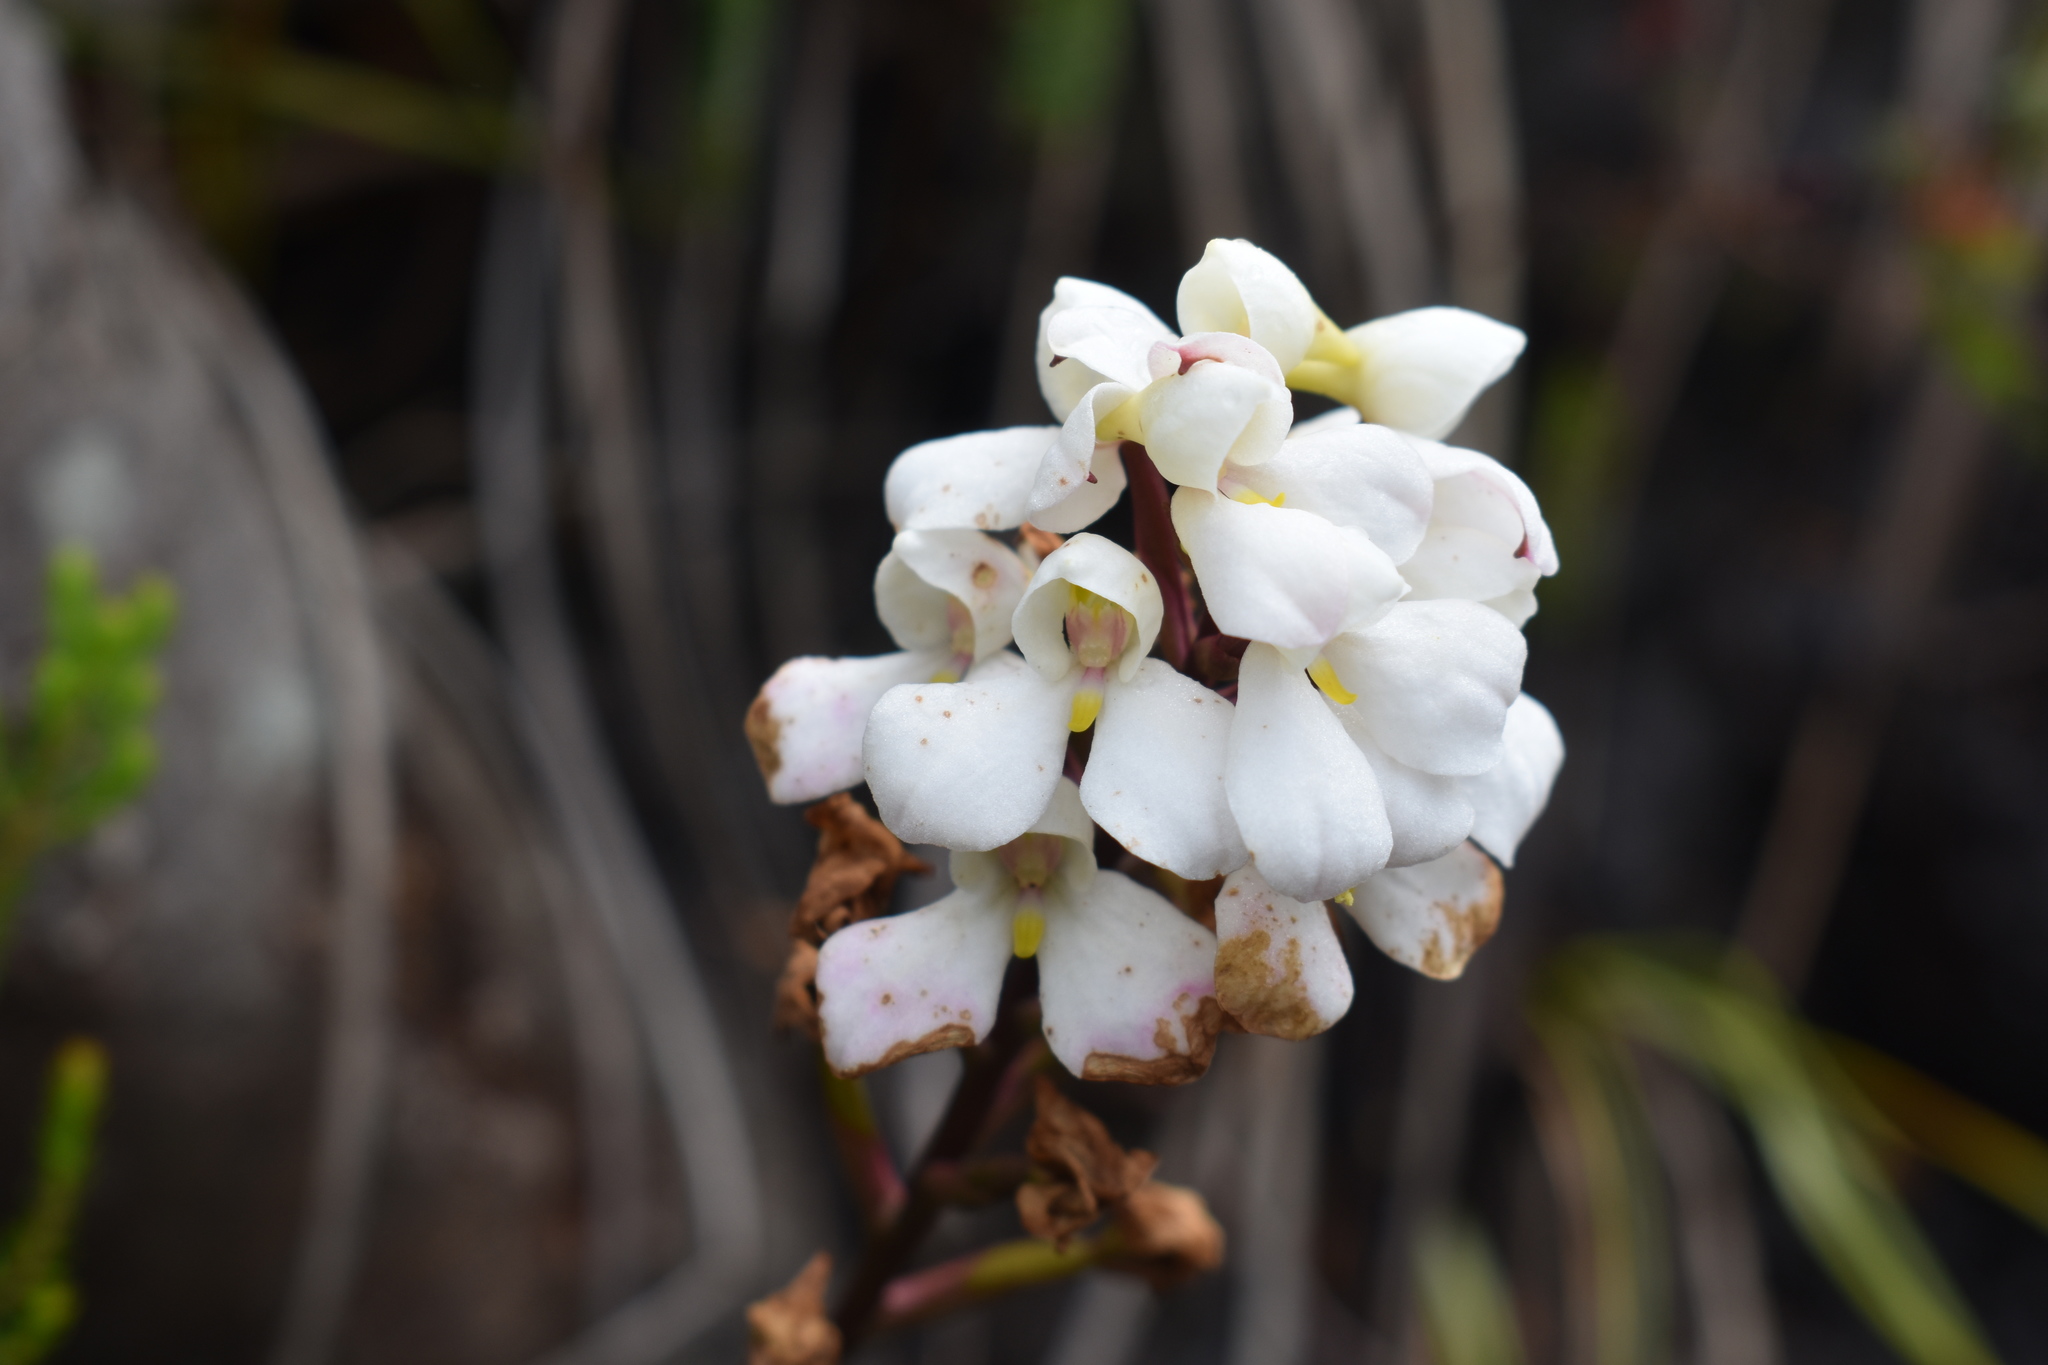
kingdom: Plantae
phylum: Tracheophyta
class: Liliopsida
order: Asparagales
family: Orchidaceae
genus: Disa
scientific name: Disa tripetaloides
